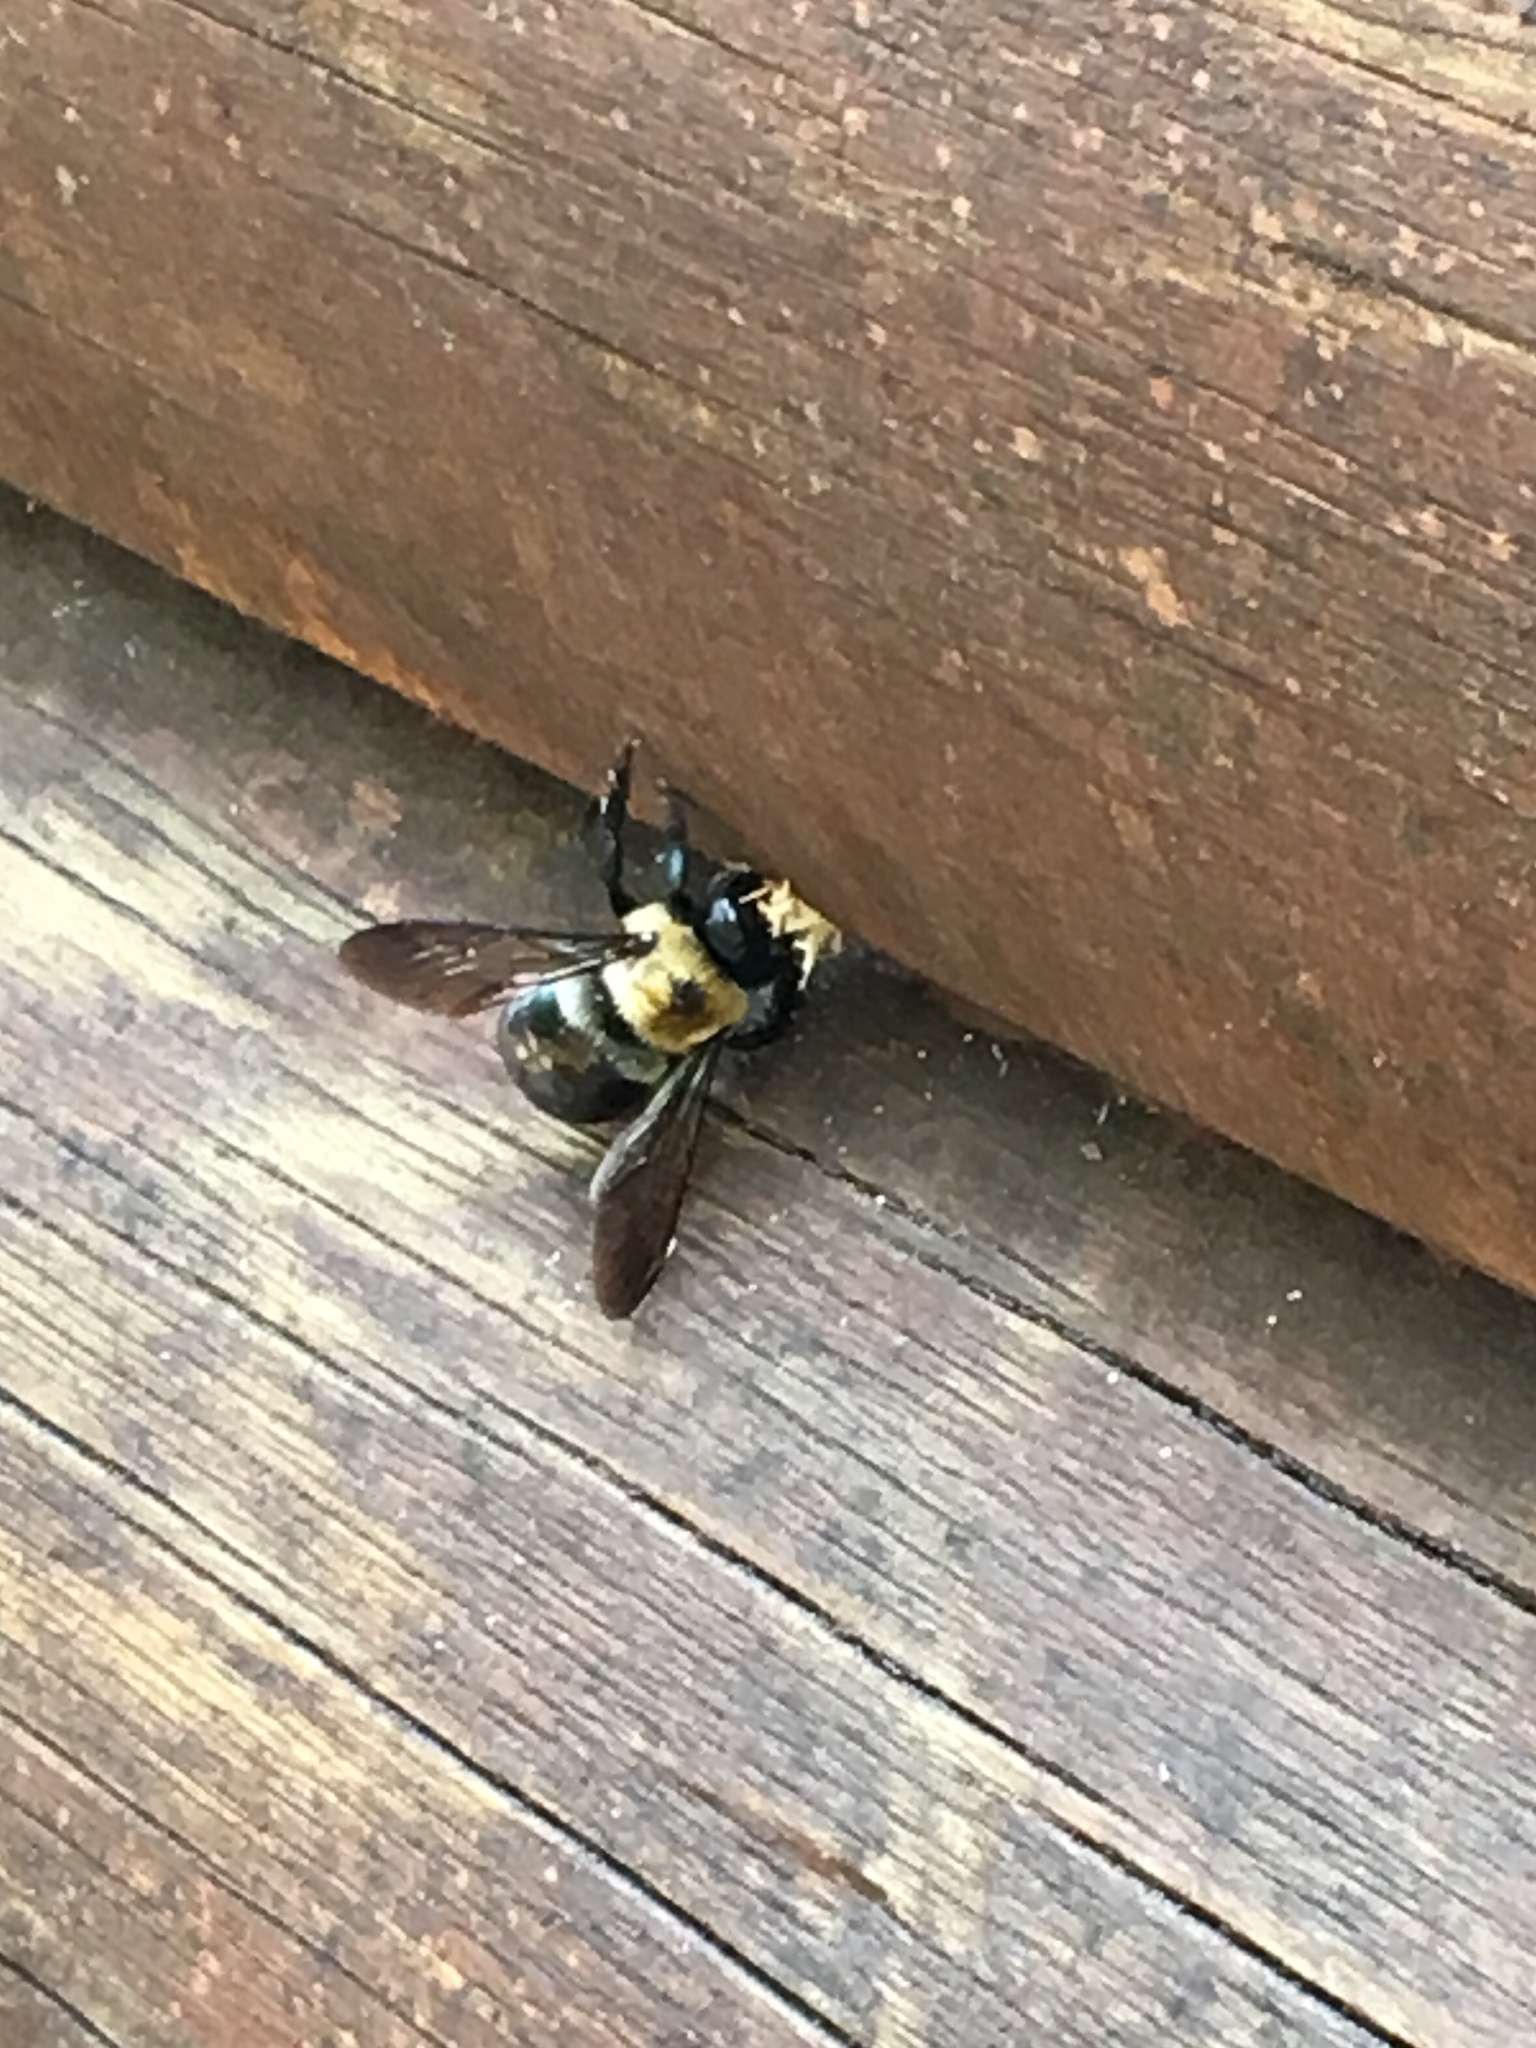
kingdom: Animalia
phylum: Arthropoda
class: Insecta
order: Hymenoptera
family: Apidae
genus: Xylocopa
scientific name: Xylocopa virginica
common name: Carpenter bee
